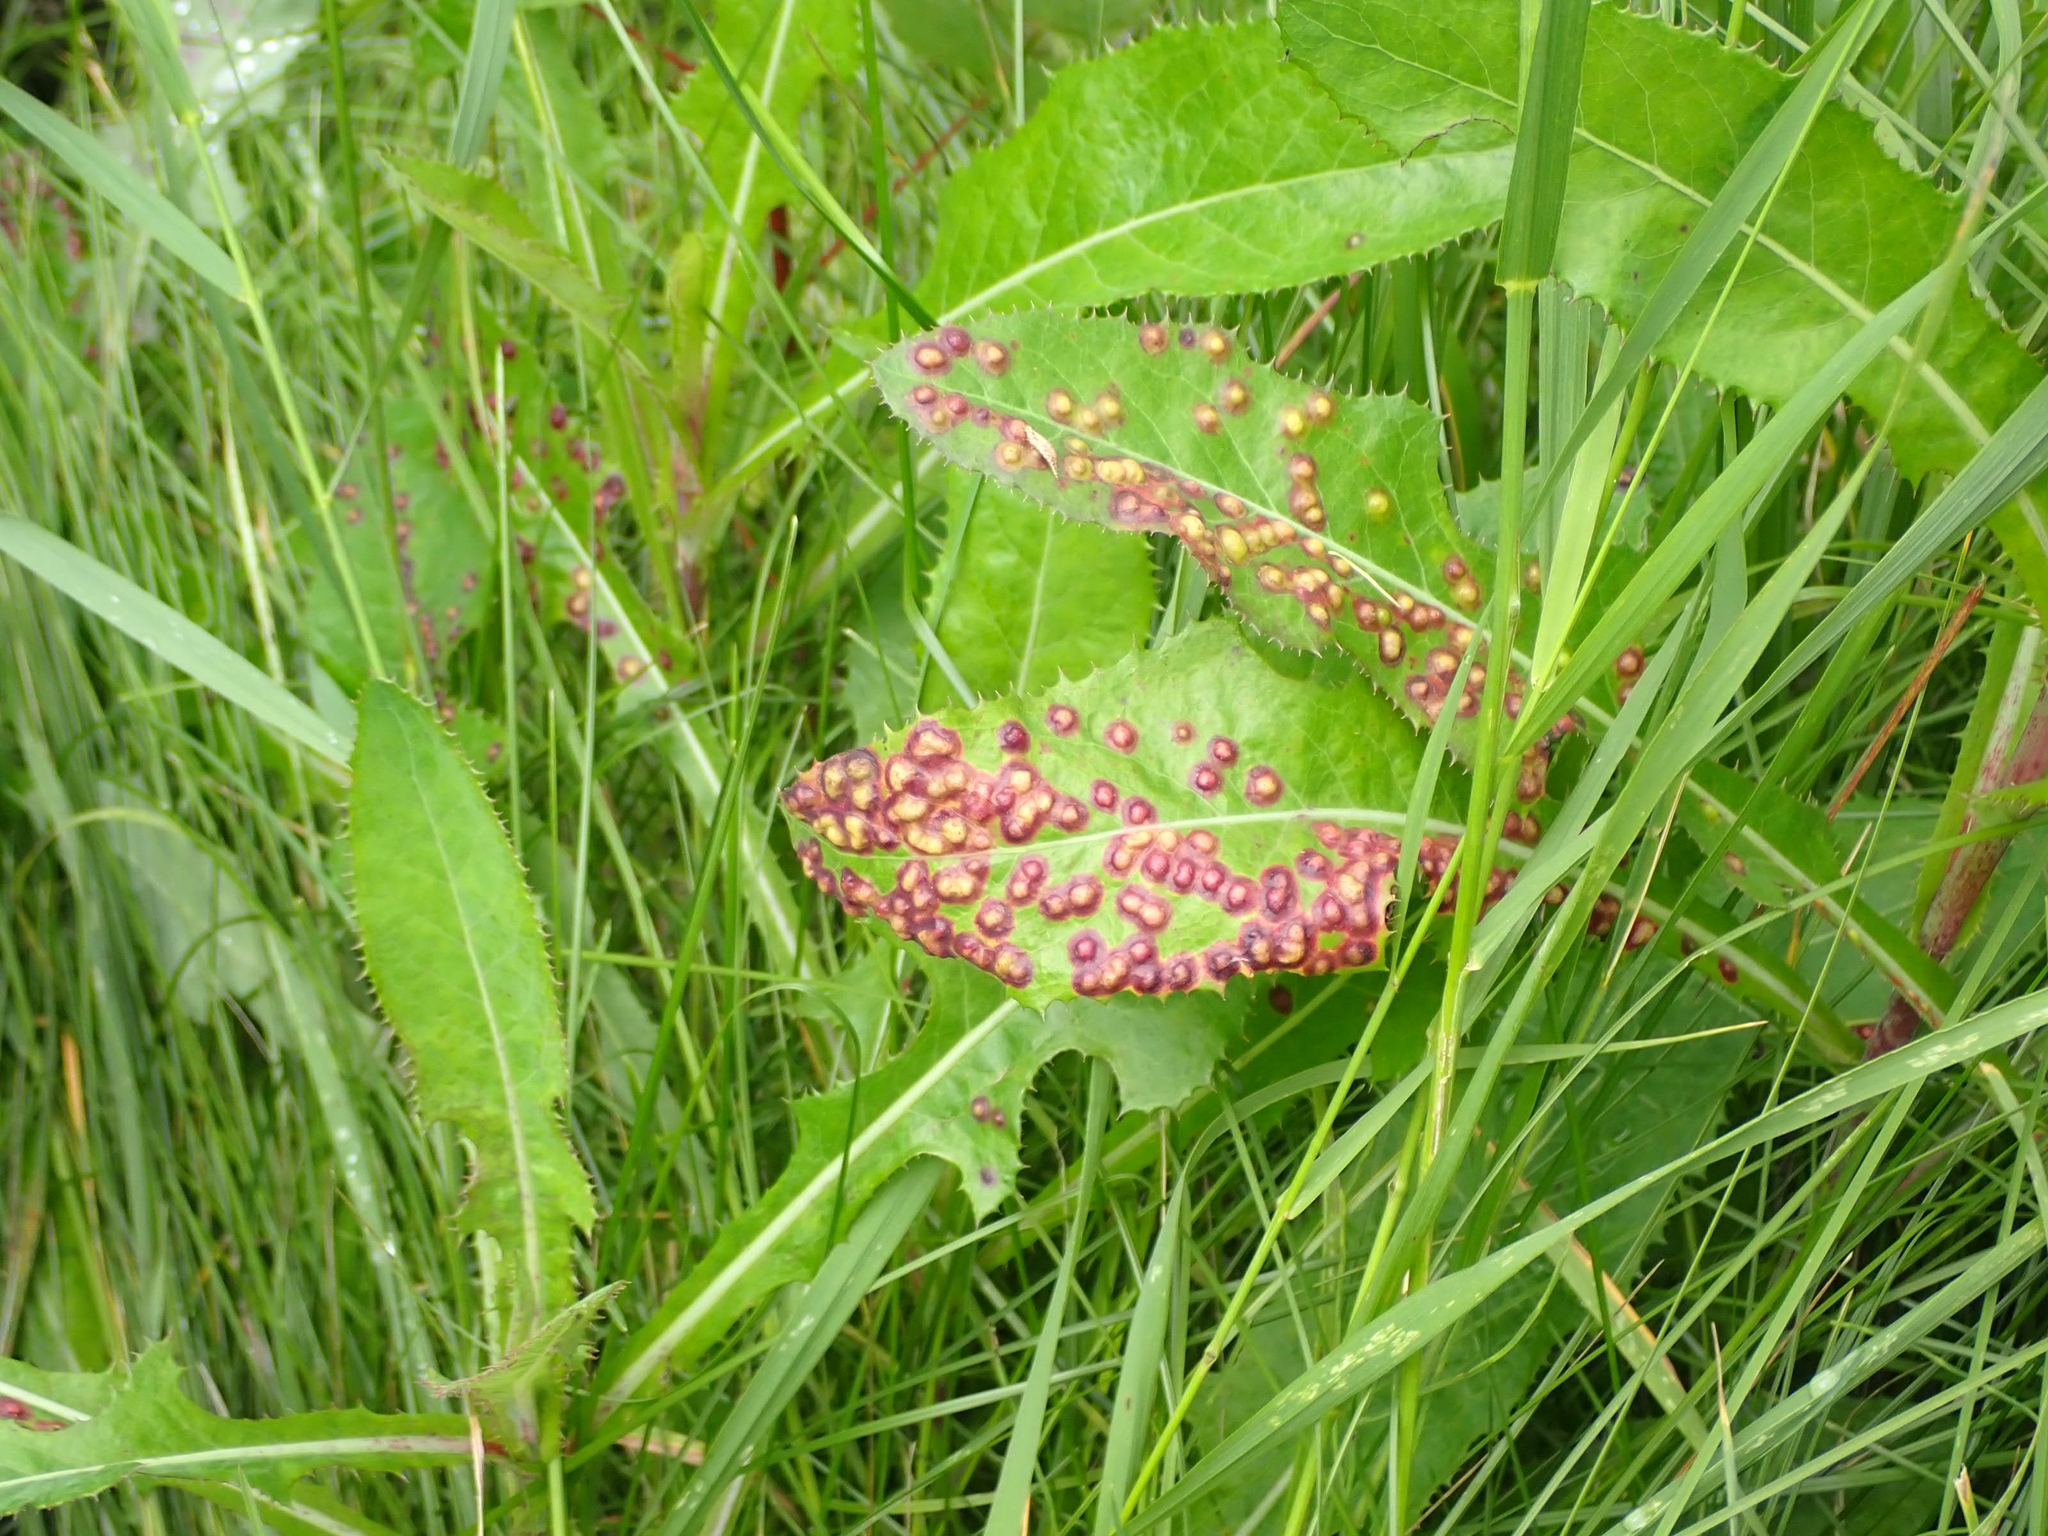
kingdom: Animalia
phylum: Arthropoda
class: Insecta
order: Diptera
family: Cecidomyiidae
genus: Cystiphora
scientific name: Cystiphora sonchi
